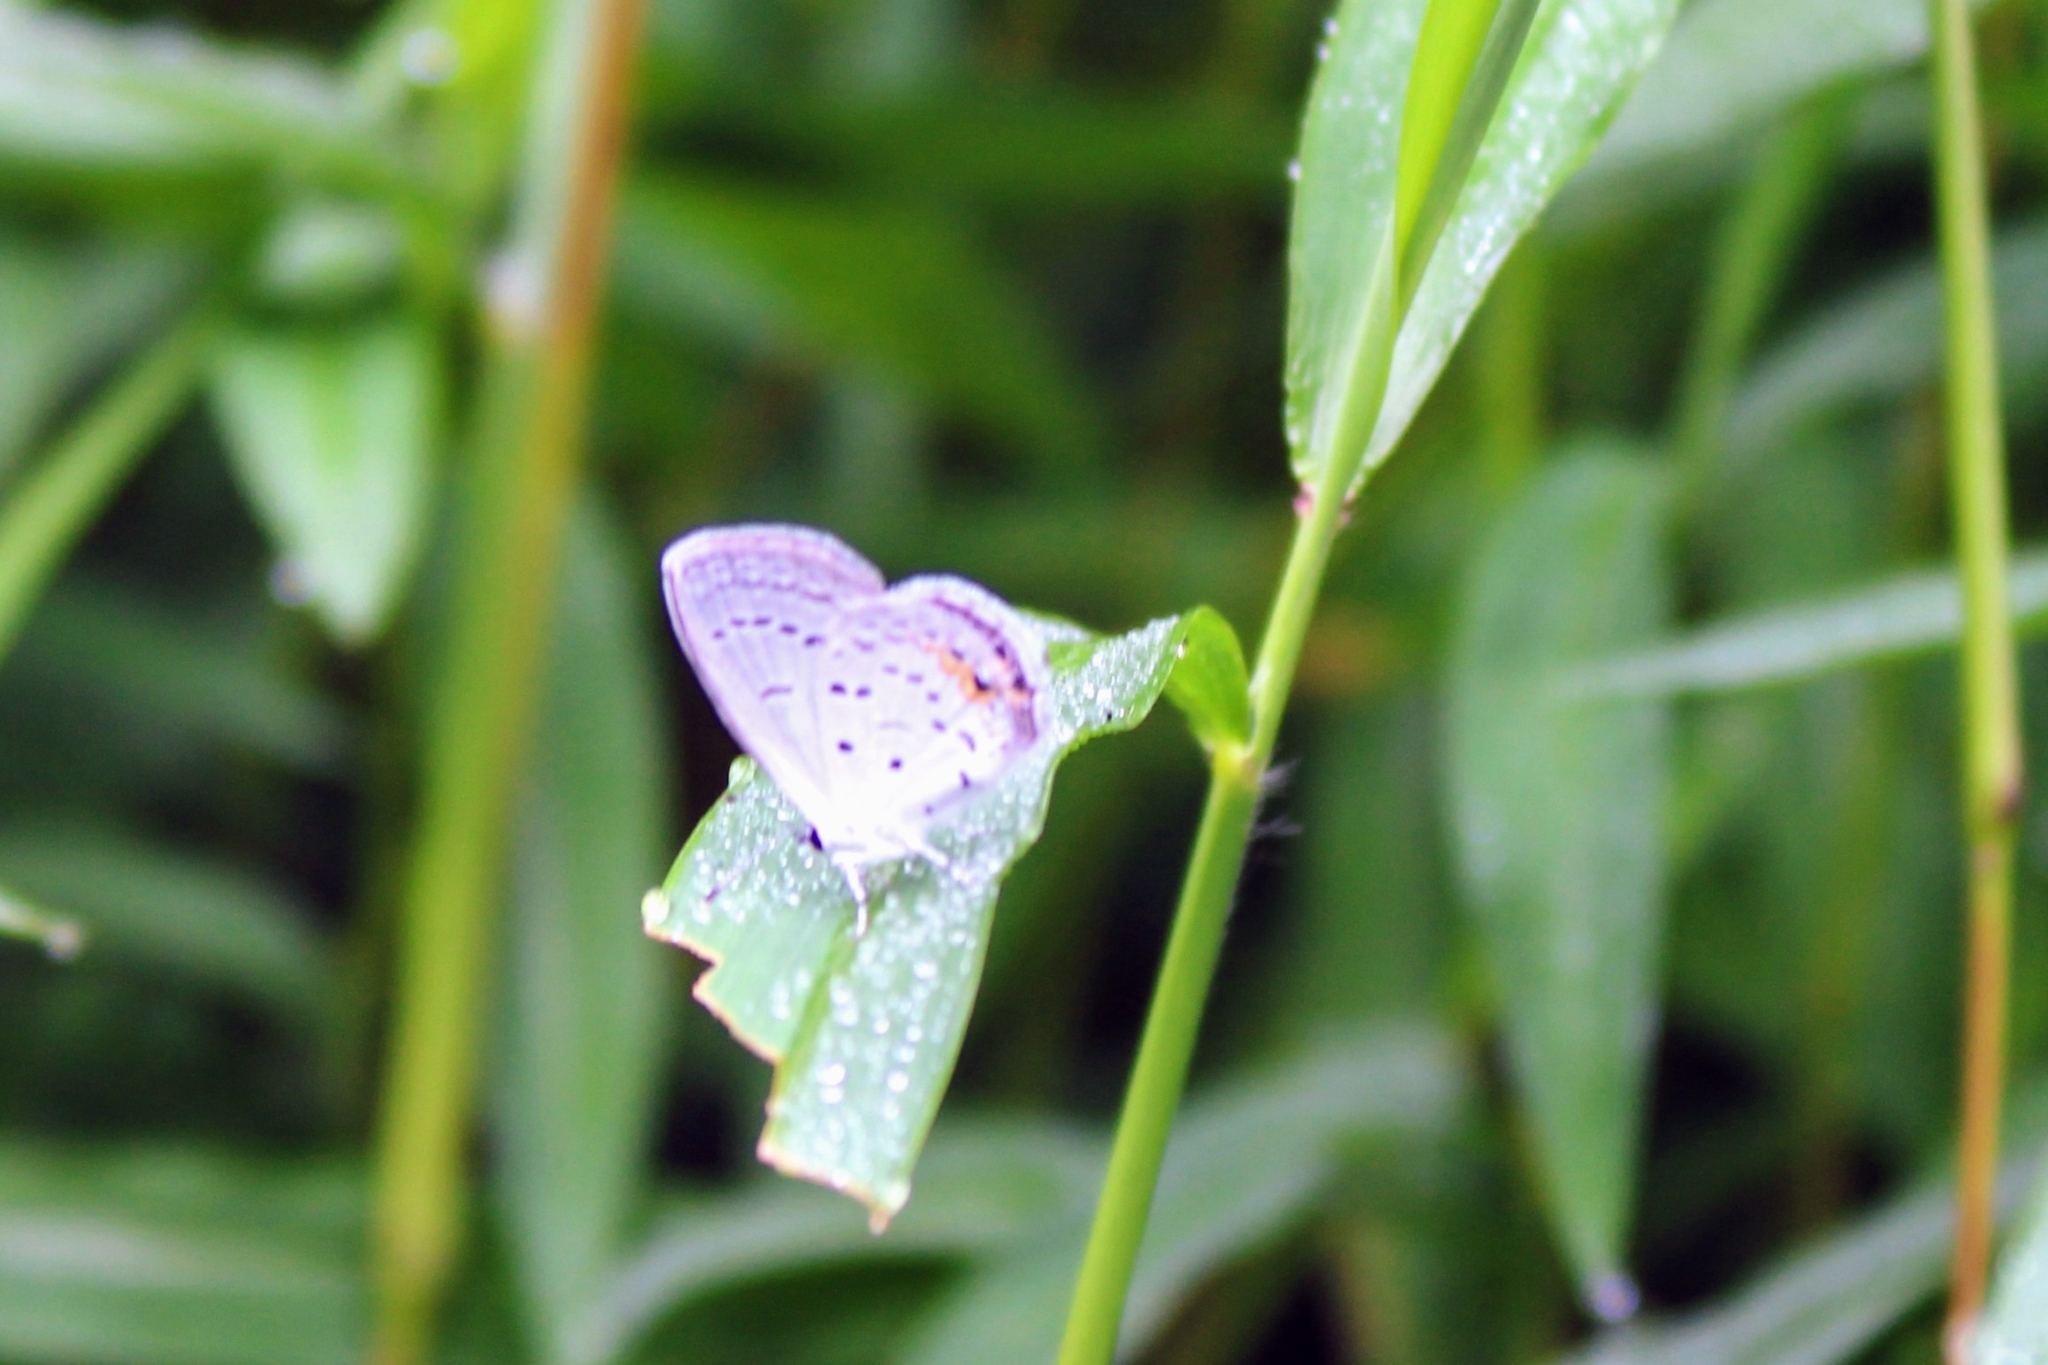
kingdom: Animalia
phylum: Arthropoda
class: Insecta
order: Lepidoptera
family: Lycaenidae
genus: Elkalyce
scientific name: Elkalyce comyntas
